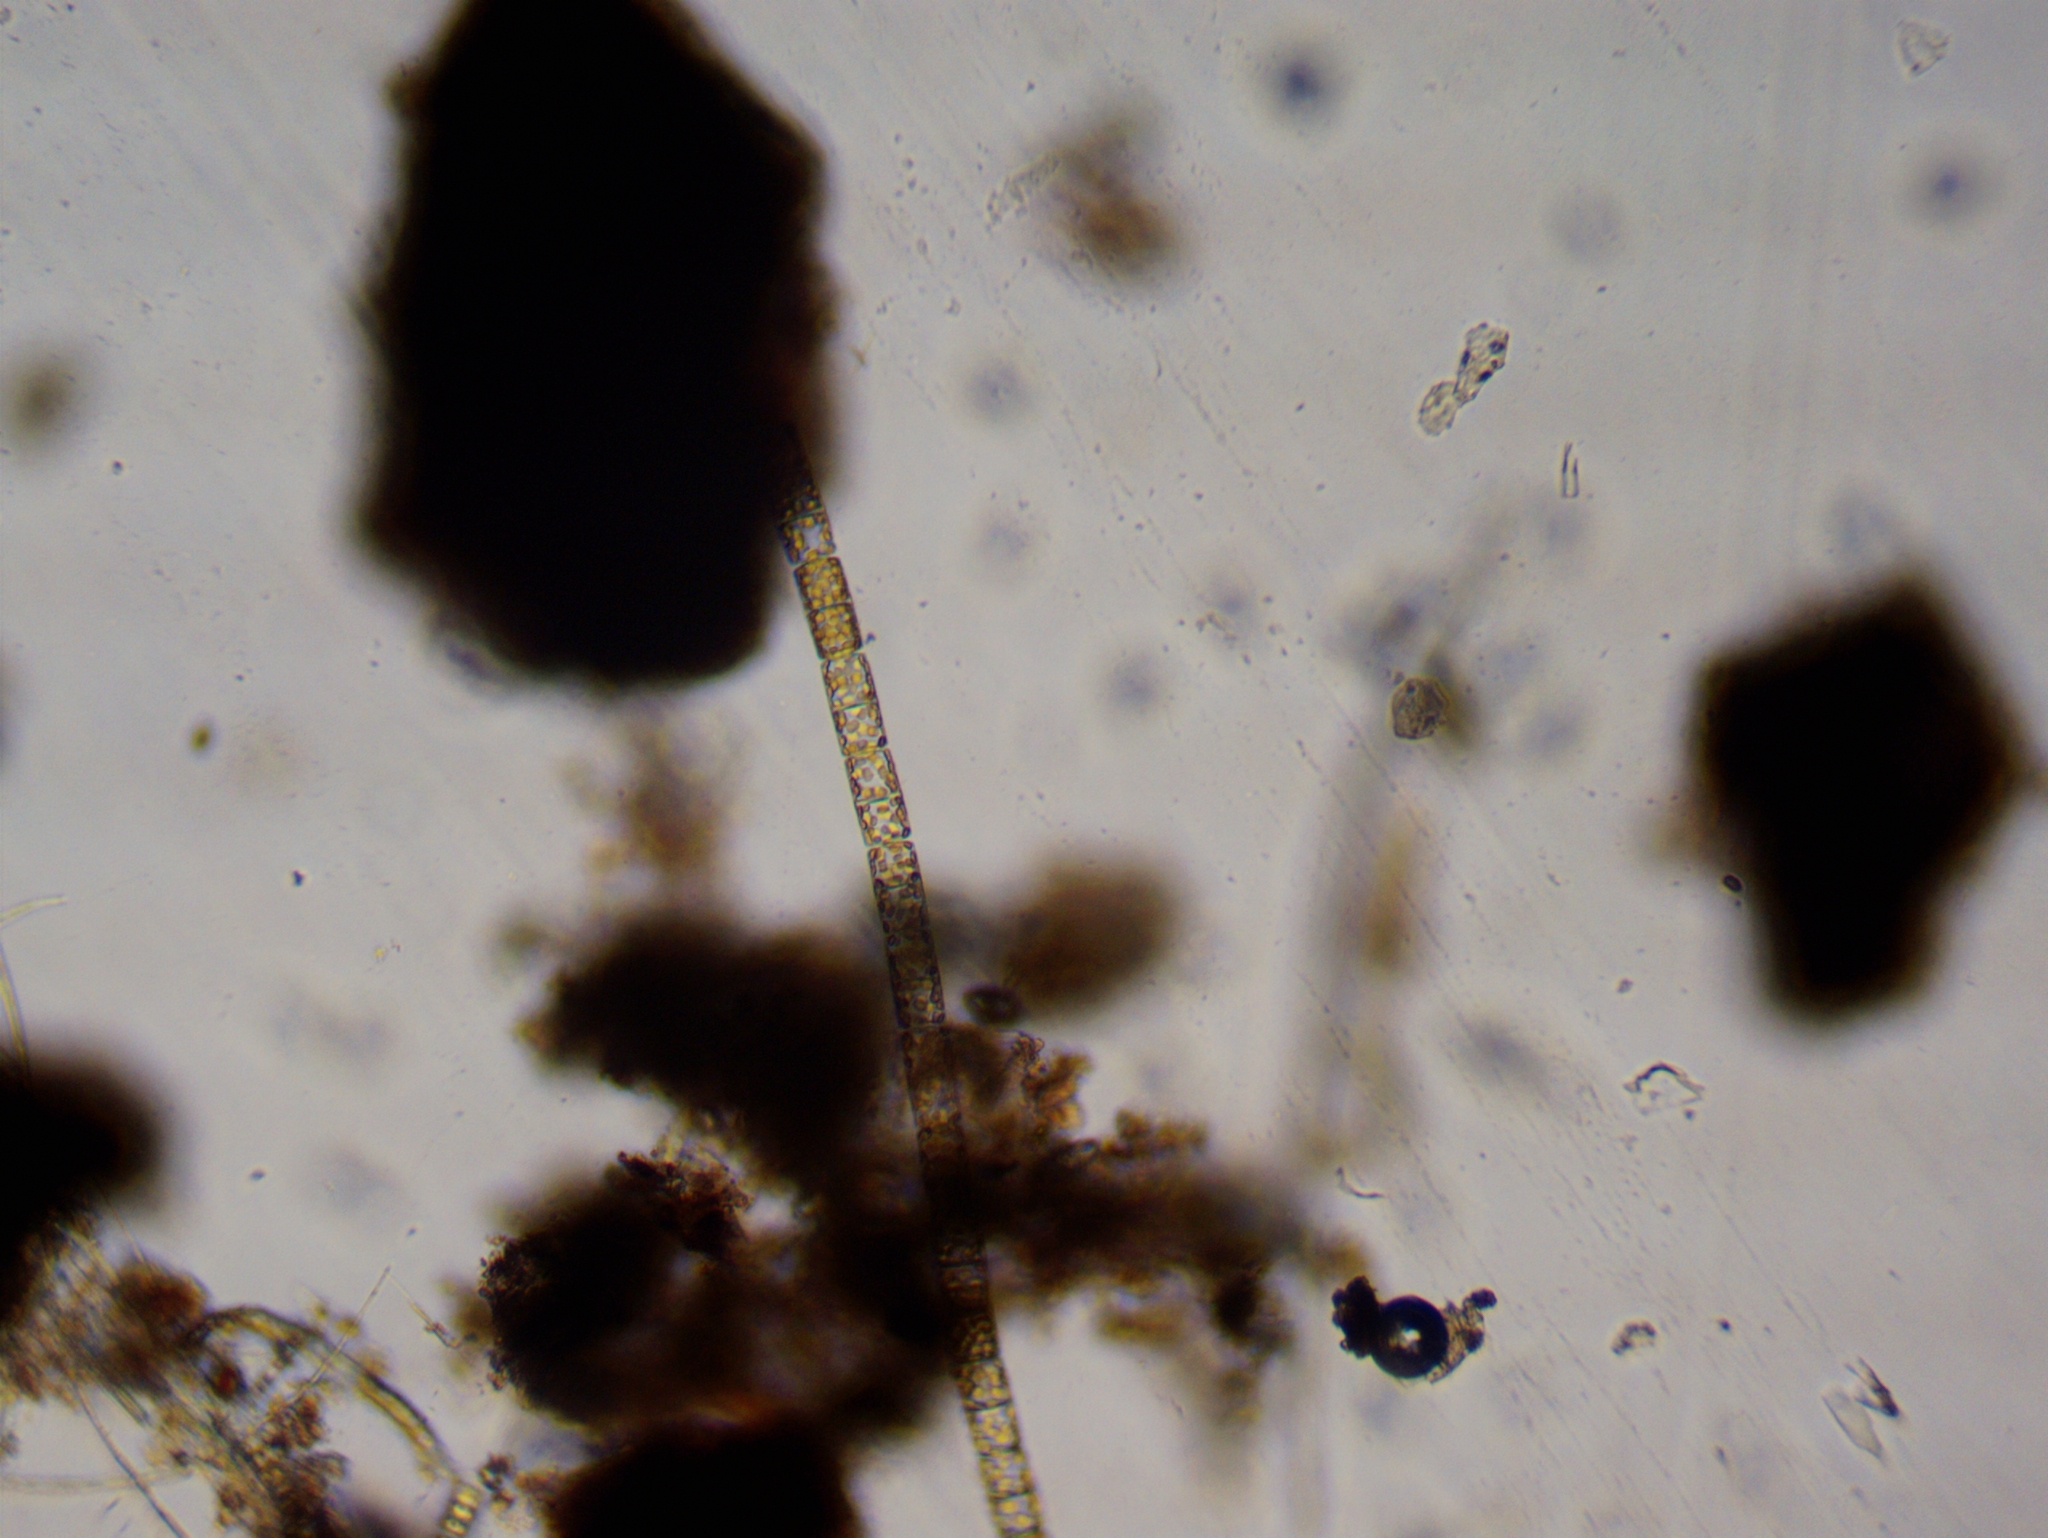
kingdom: Chromista
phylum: Ochrophyta
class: Bacillariophyceae
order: Melosirales
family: Melosiraceae
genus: Melosira
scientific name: Melosira varians
